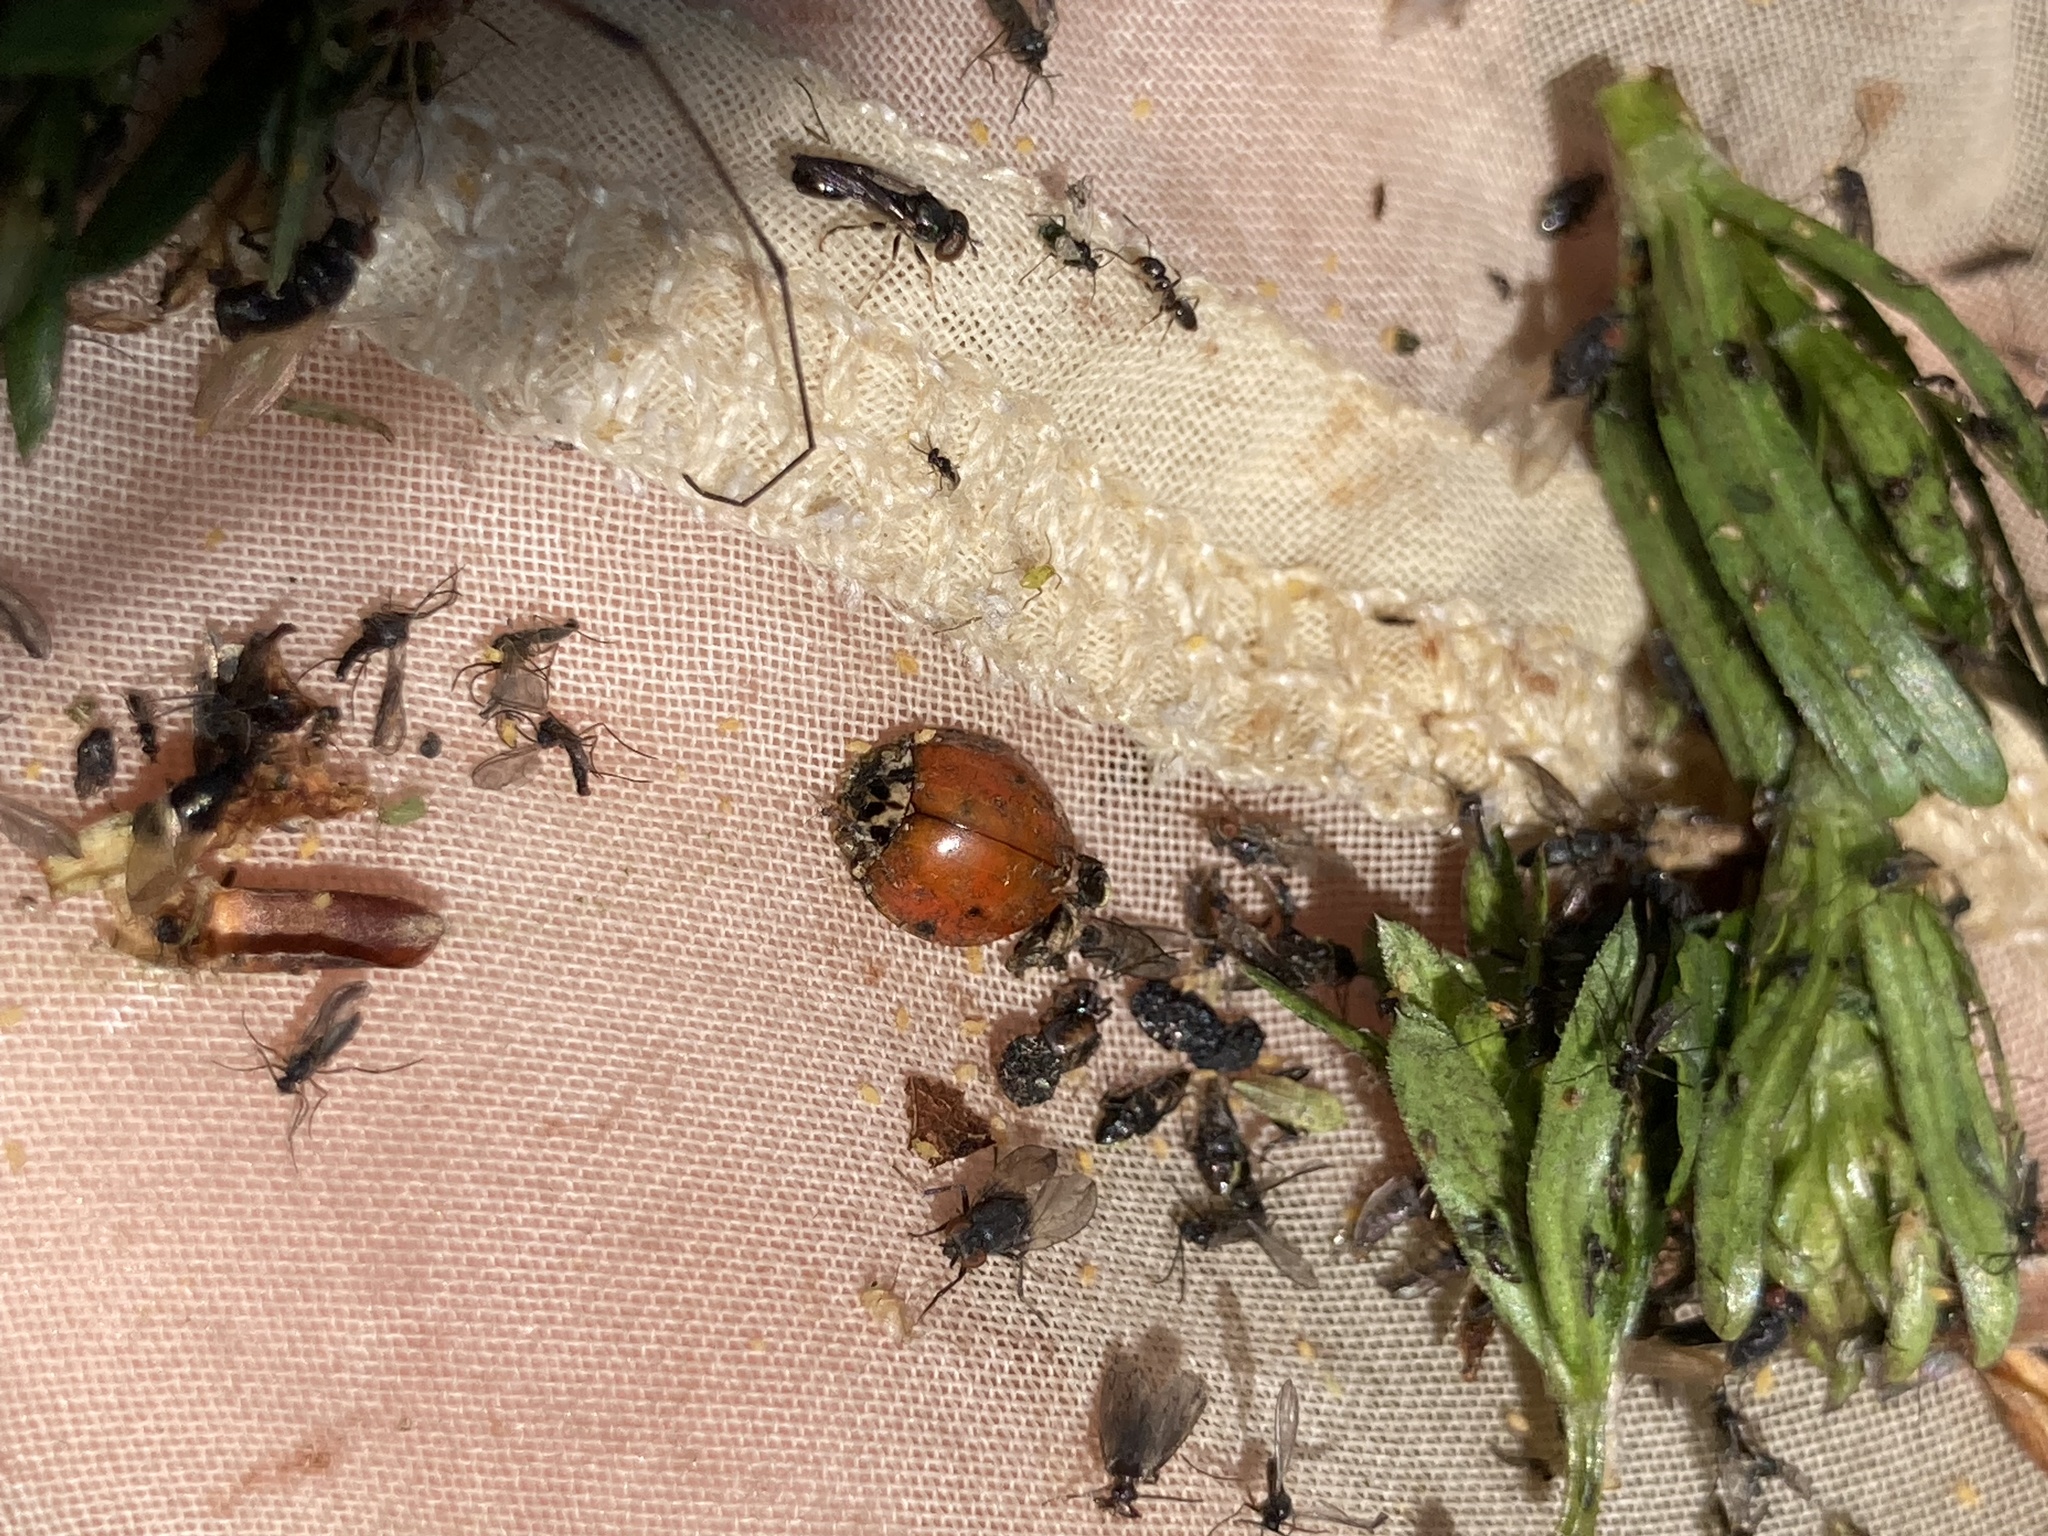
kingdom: Animalia
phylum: Arthropoda
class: Insecta
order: Coleoptera
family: Coccinellidae
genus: Harmonia
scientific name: Harmonia axyridis
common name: Harlequin ladybird
